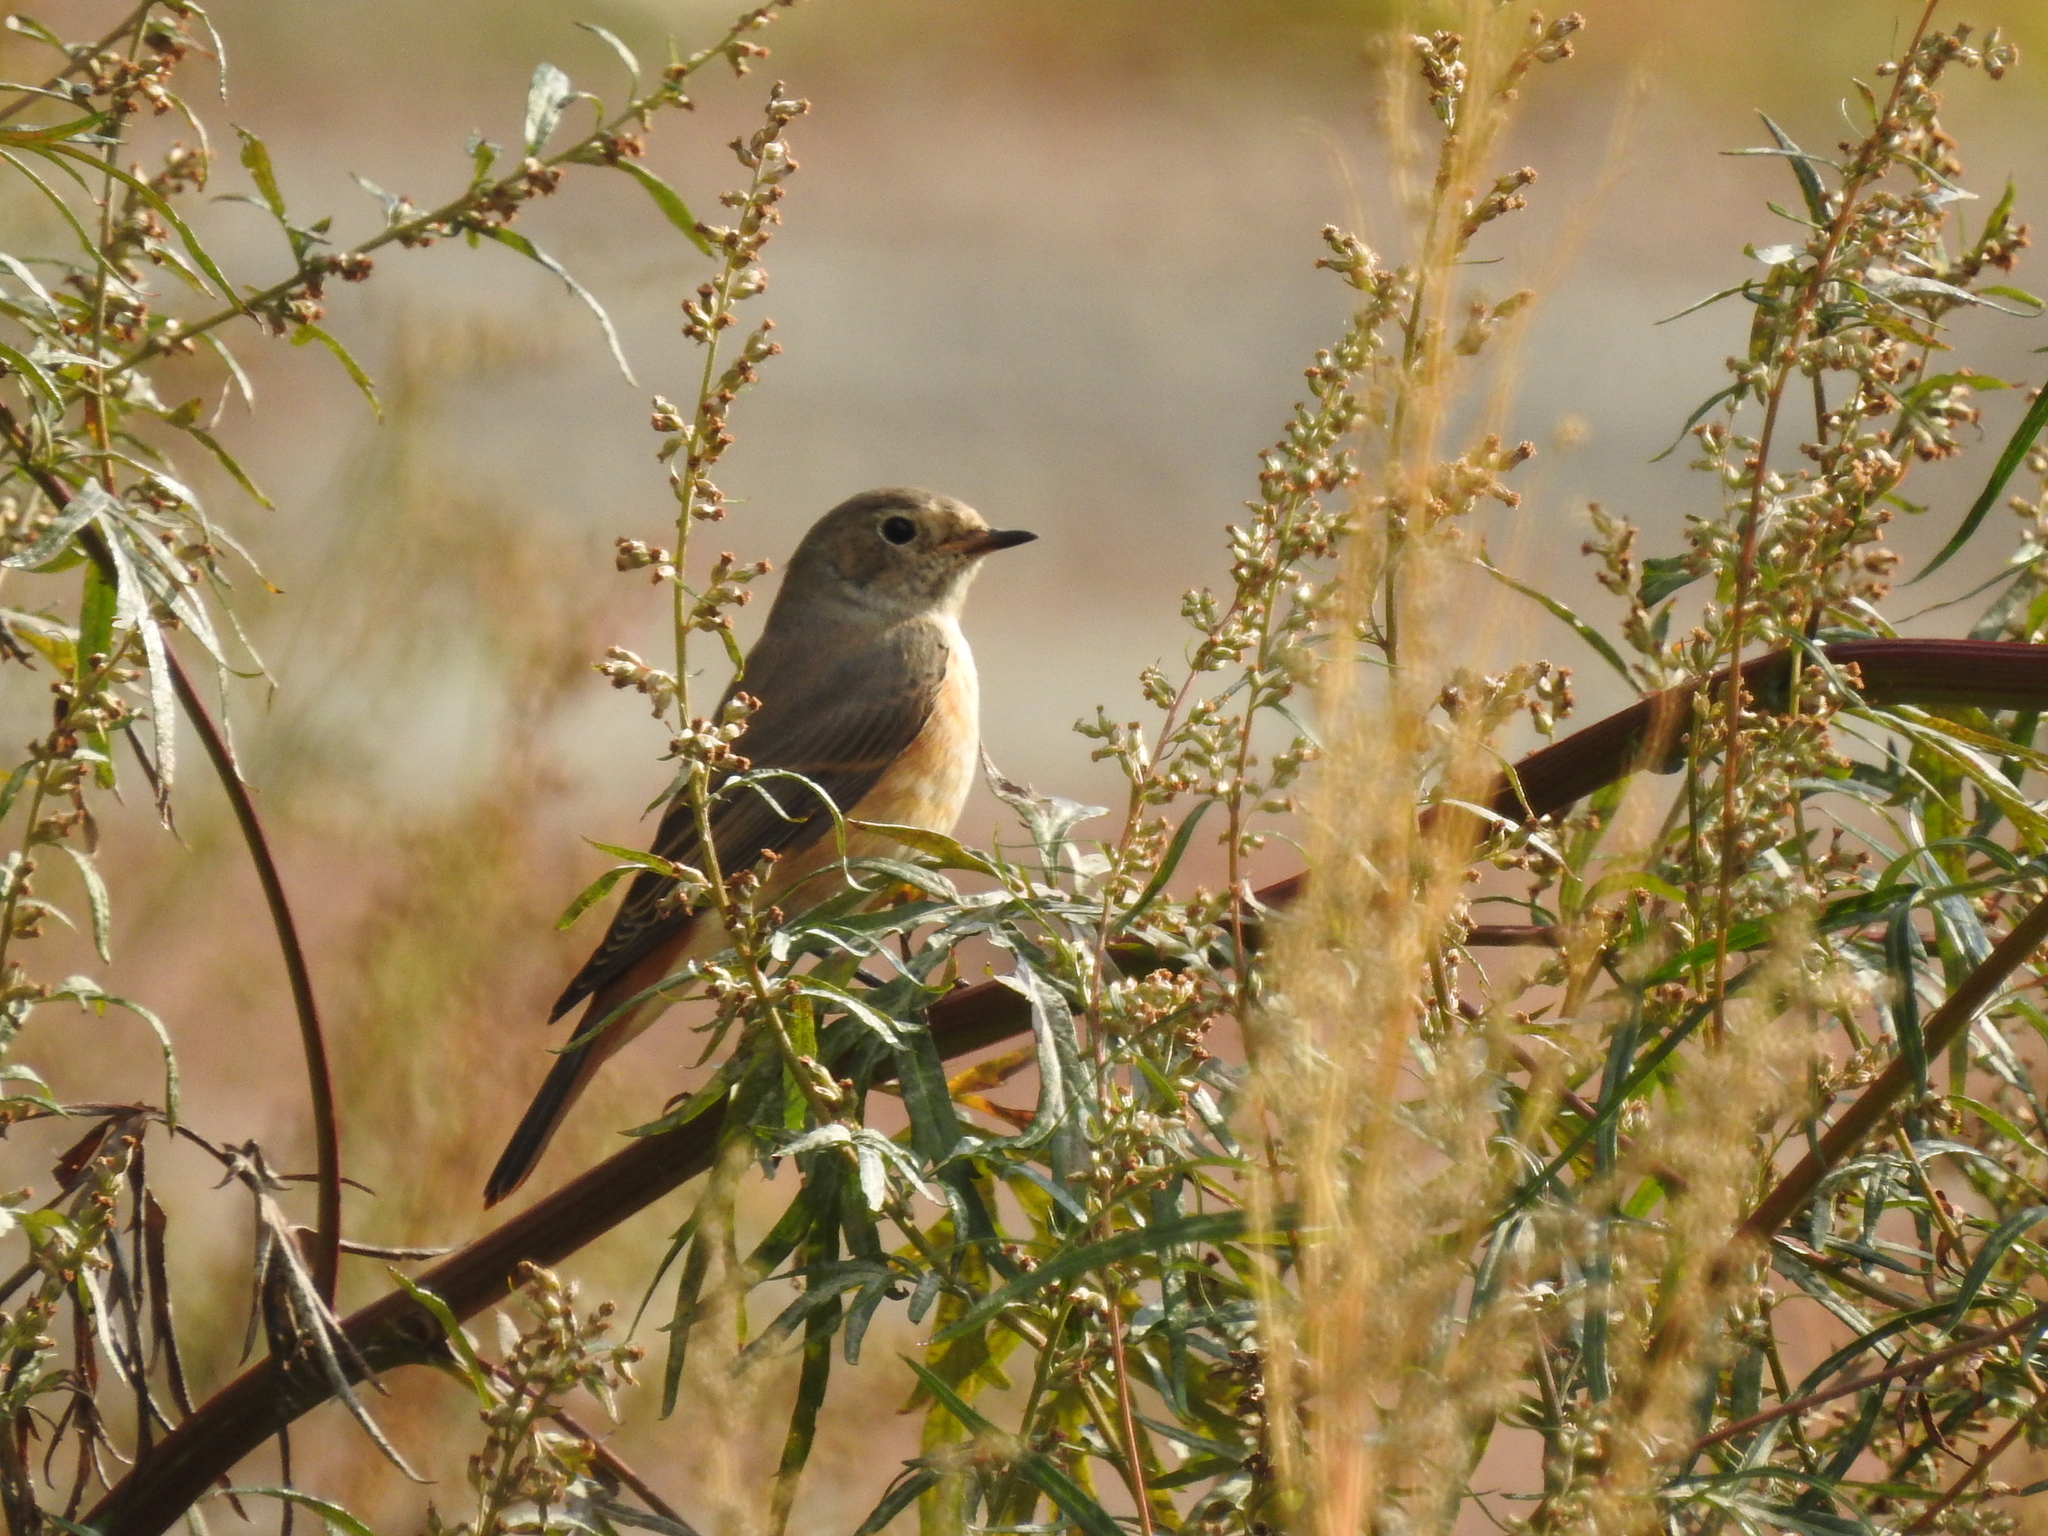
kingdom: Animalia
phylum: Chordata
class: Aves
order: Passeriformes
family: Muscicapidae
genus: Phoenicurus
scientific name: Phoenicurus phoenicurus
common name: Common redstart
